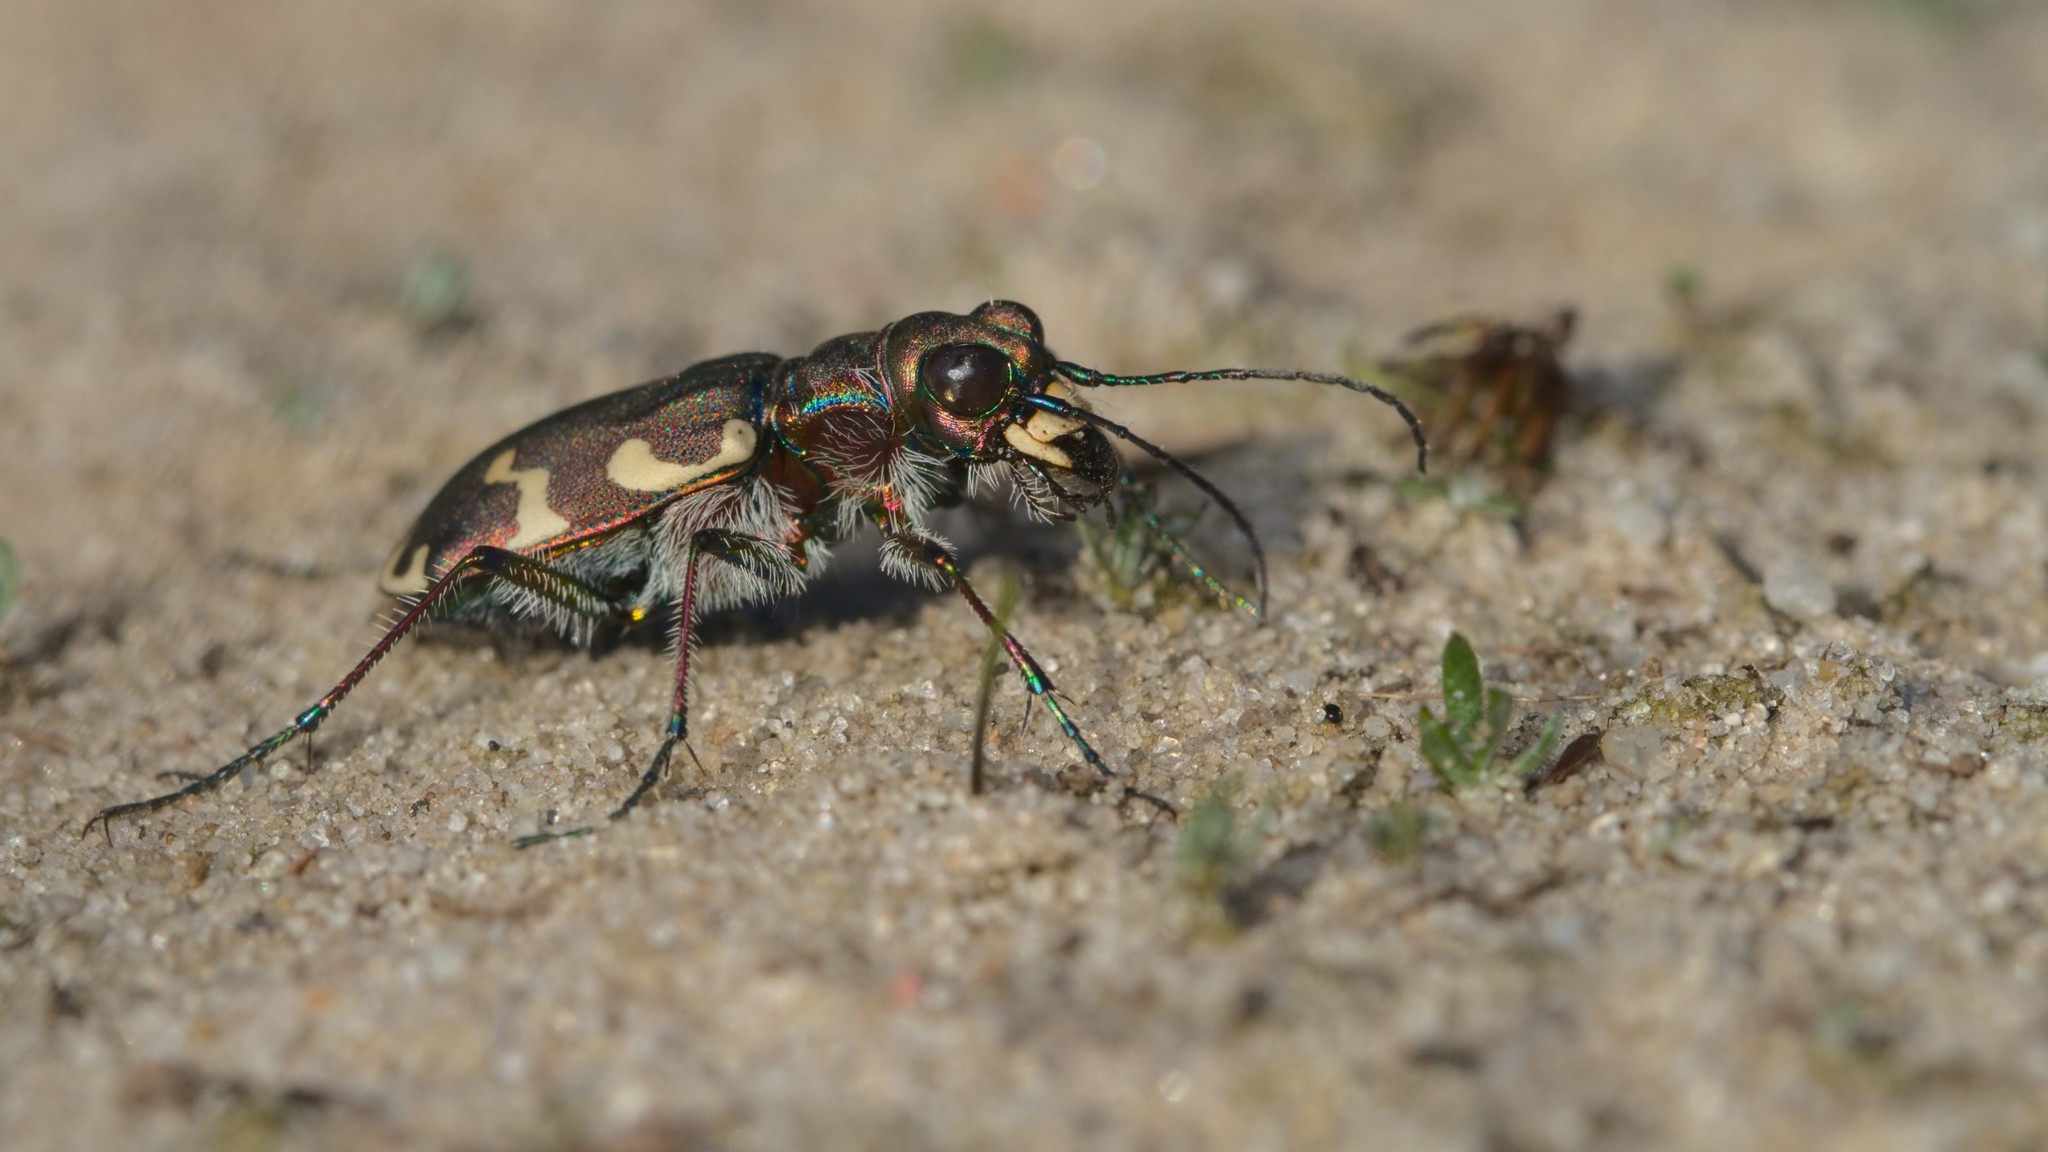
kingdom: Animalia
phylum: Arthropoda
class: Insecta
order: Coleoptera
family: Carabidae
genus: Cicindela
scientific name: Cicindela hybrida
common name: Northern dune tiger beetle
